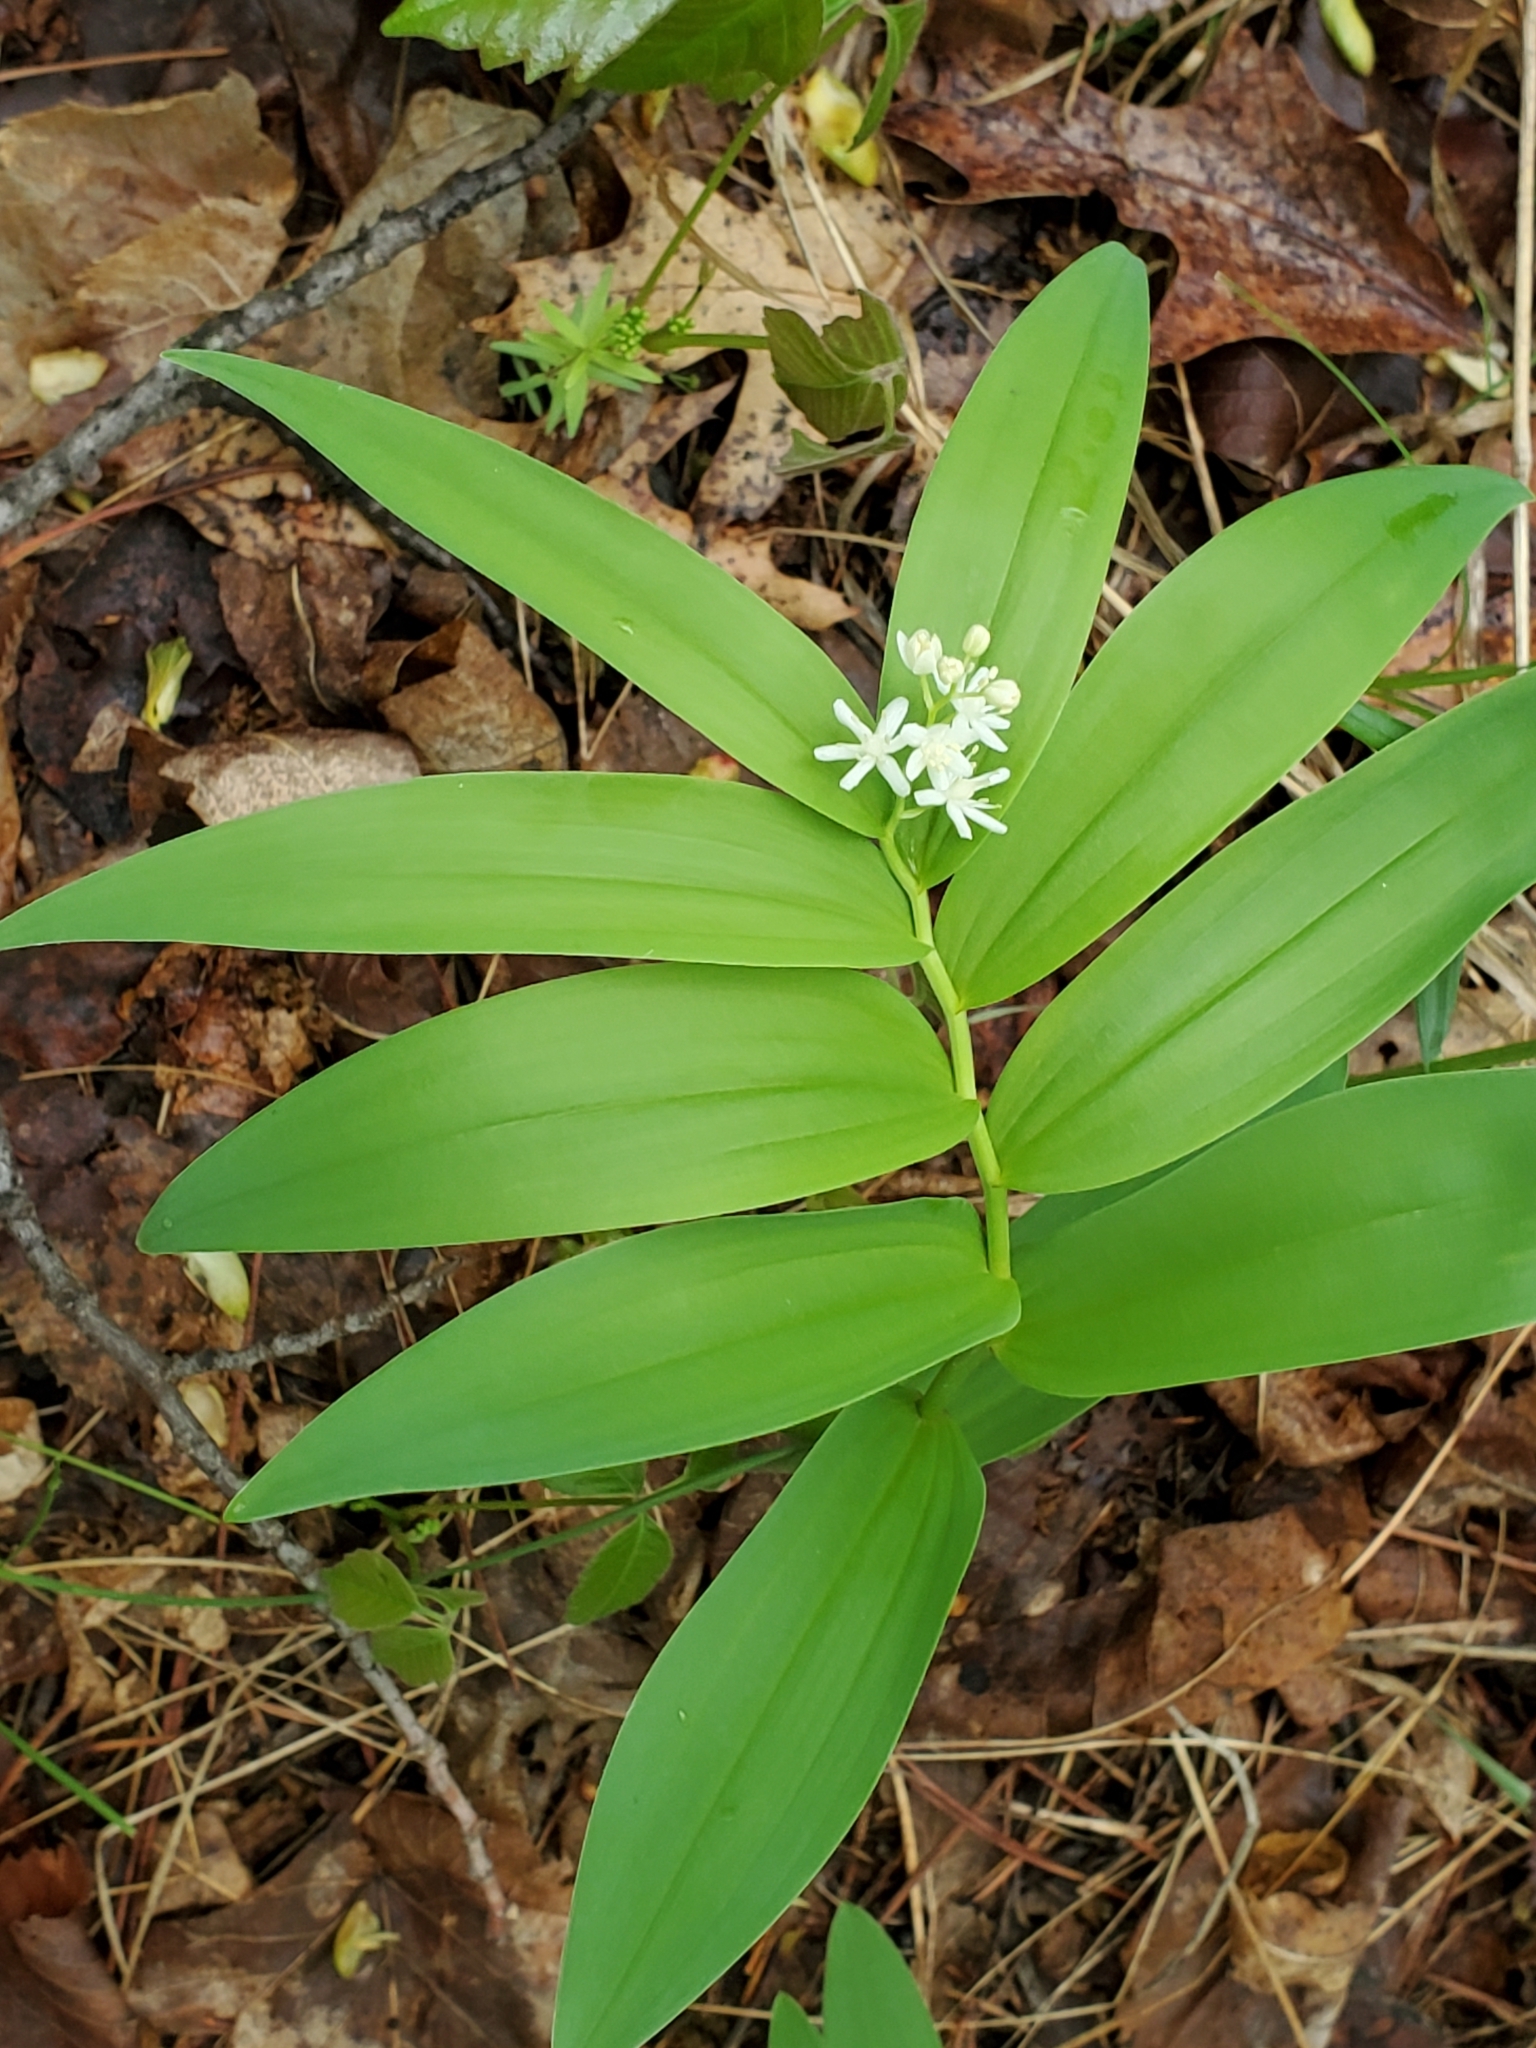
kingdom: Plantae
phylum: Tracheophyta
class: Liliopsida
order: Asparagales
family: Asparagaceae
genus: Maianthemum
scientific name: Maianthemum stellatum
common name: Little false solomon's seal
